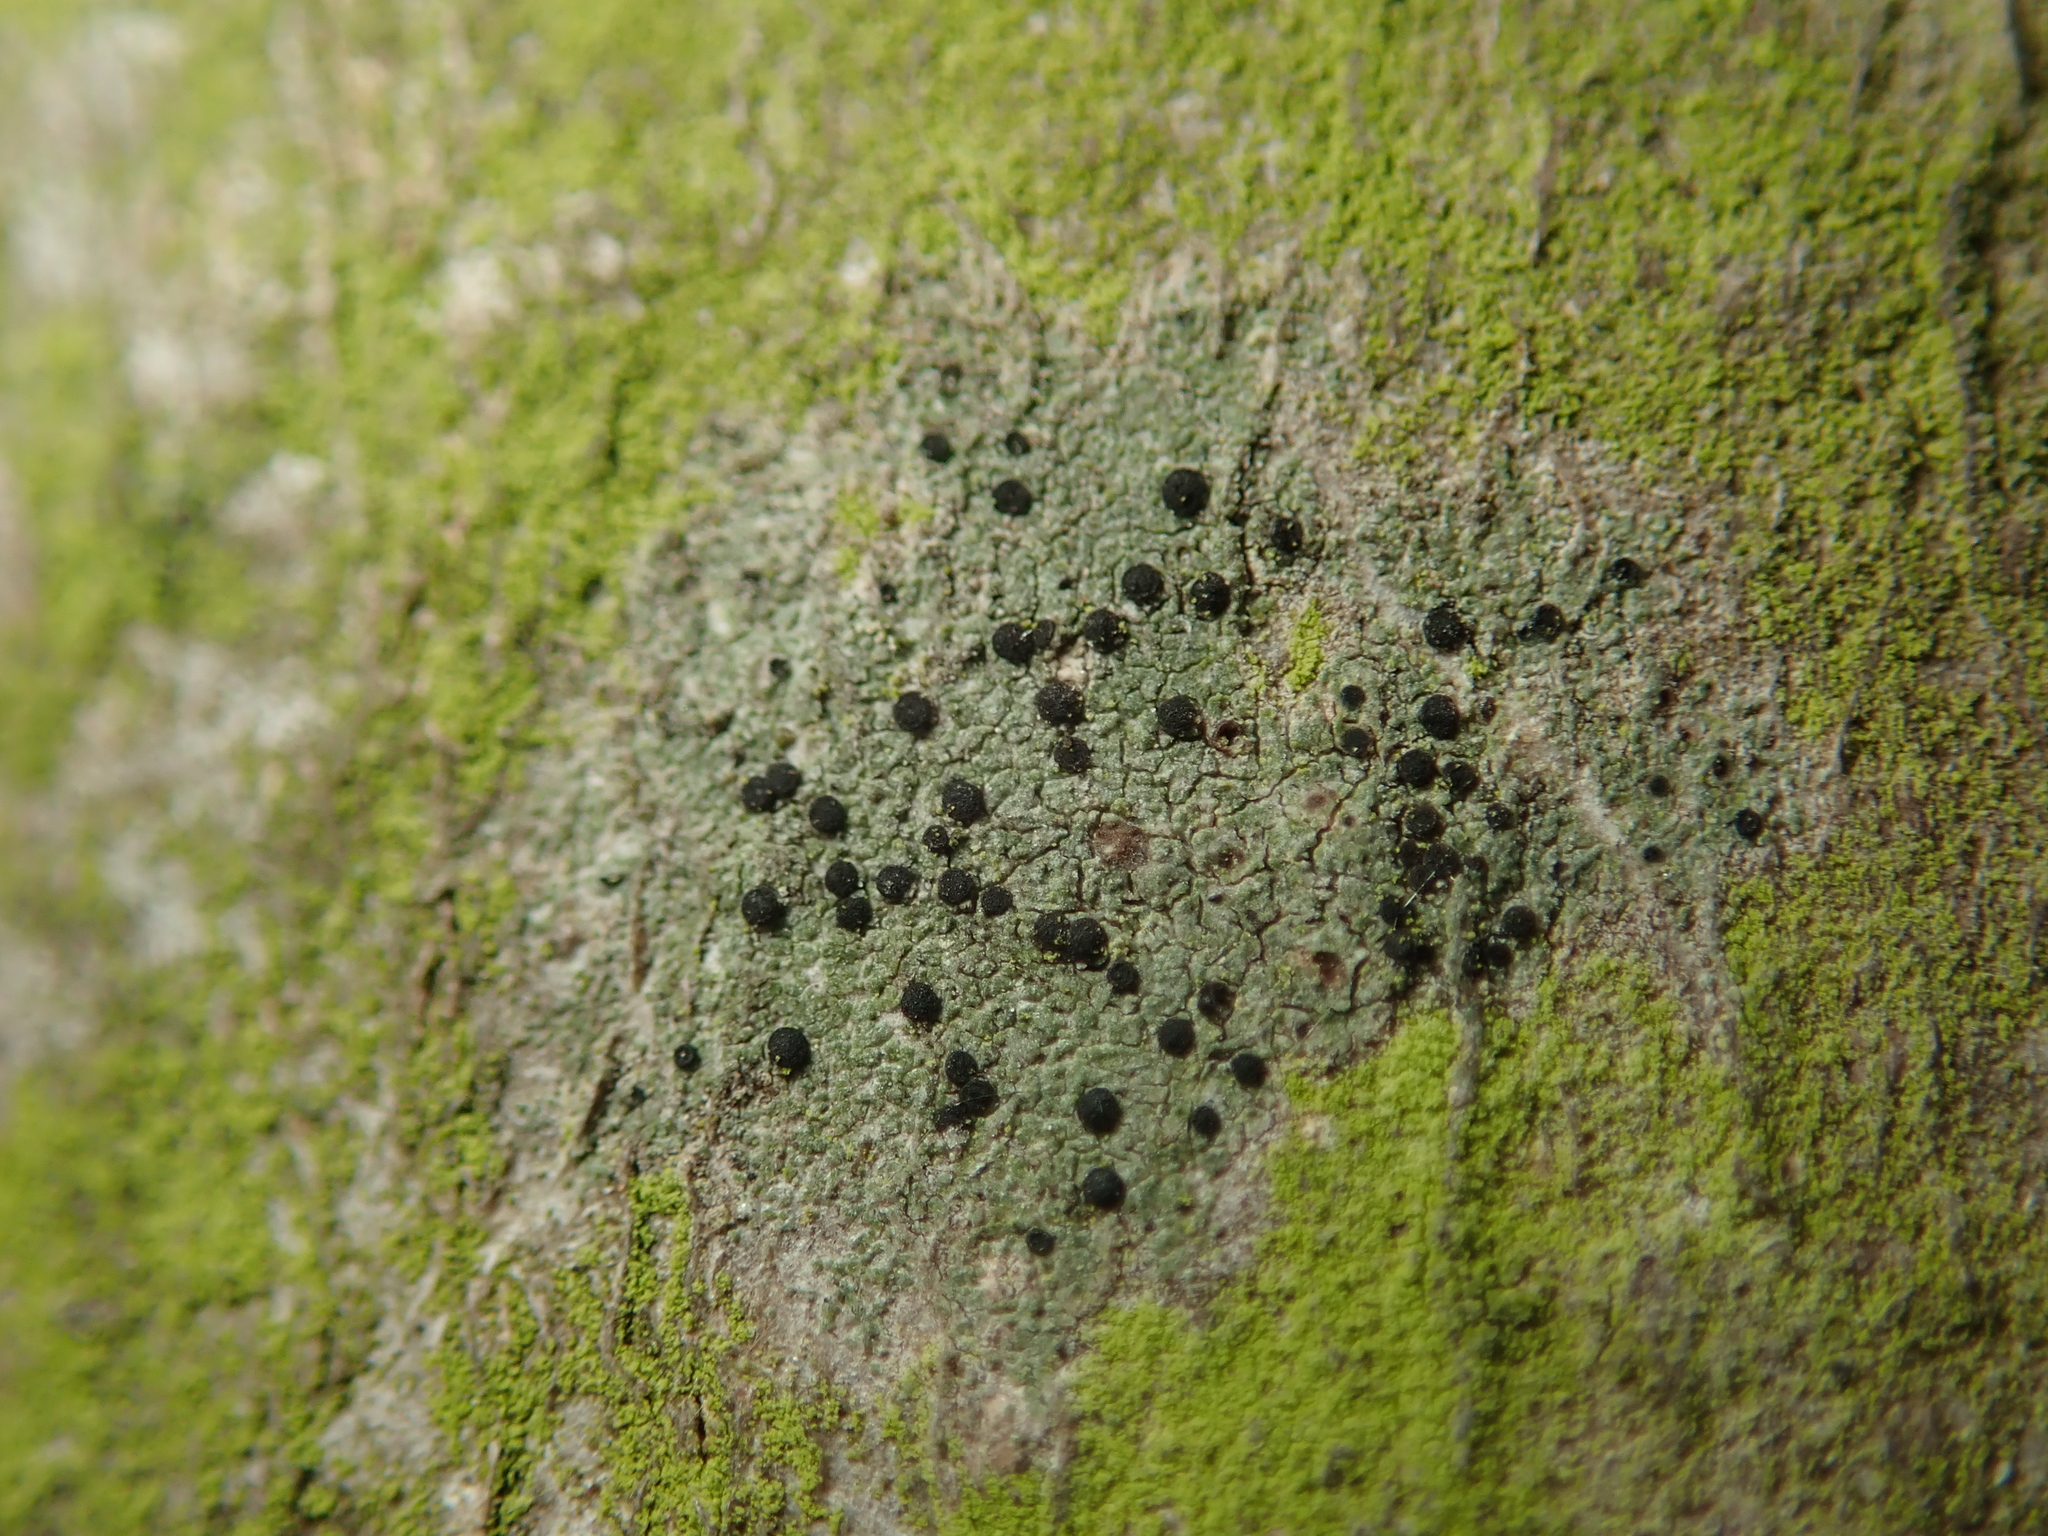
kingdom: Fungi
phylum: Ascomycota
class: Lecanoromycetes
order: Lecanorales
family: Lecanoraceae
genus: Lecidella
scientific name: Lecidella elaeochroma
